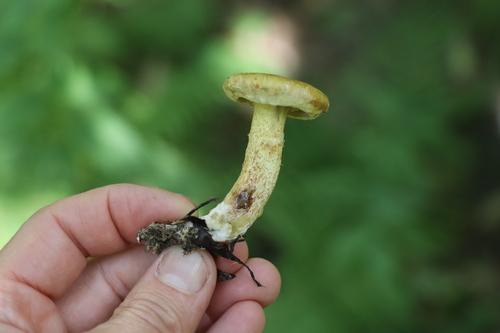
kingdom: Fungi
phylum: Basidiomycota
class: Agaricomycetes
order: Boletales
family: Suillaceae
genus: Suillus
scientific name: Suillus americanus
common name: Chicken fat mushroom
